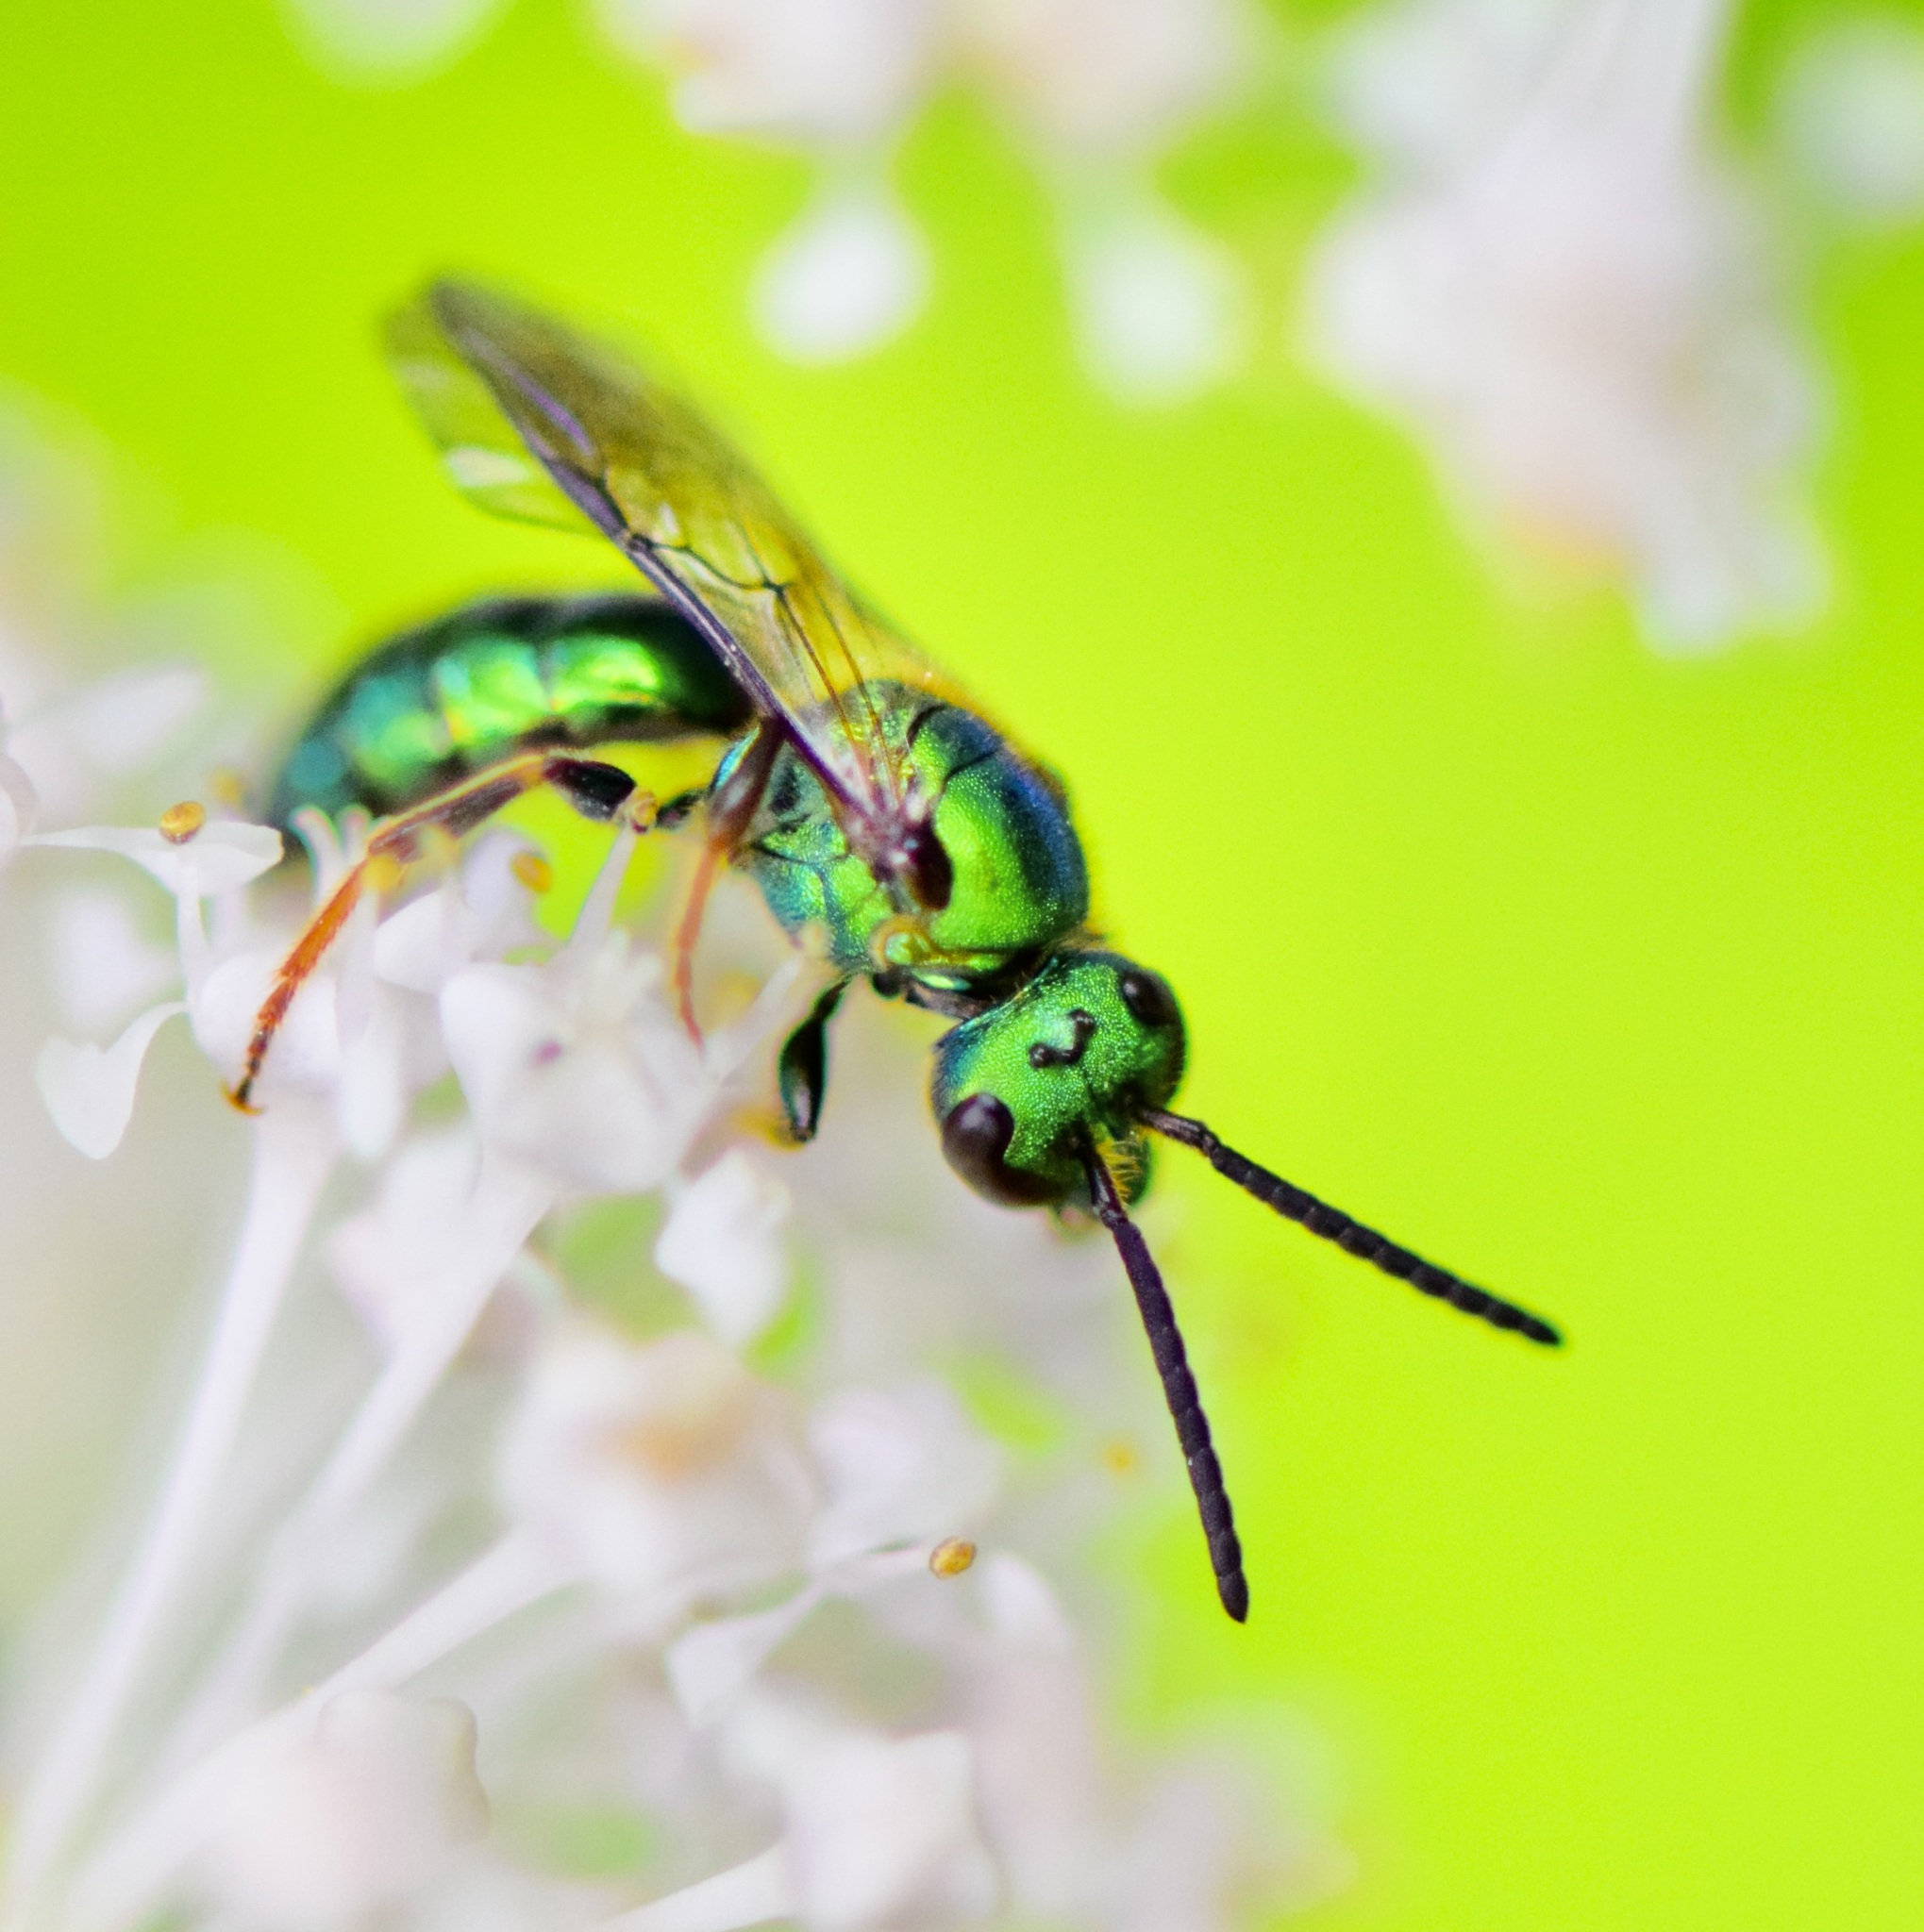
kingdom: Animalia
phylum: Arthropoda
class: Insecta
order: Hymenoptera
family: Halictidae
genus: Augochlora
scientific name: Augochlora pura
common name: Pure green sweat bee
